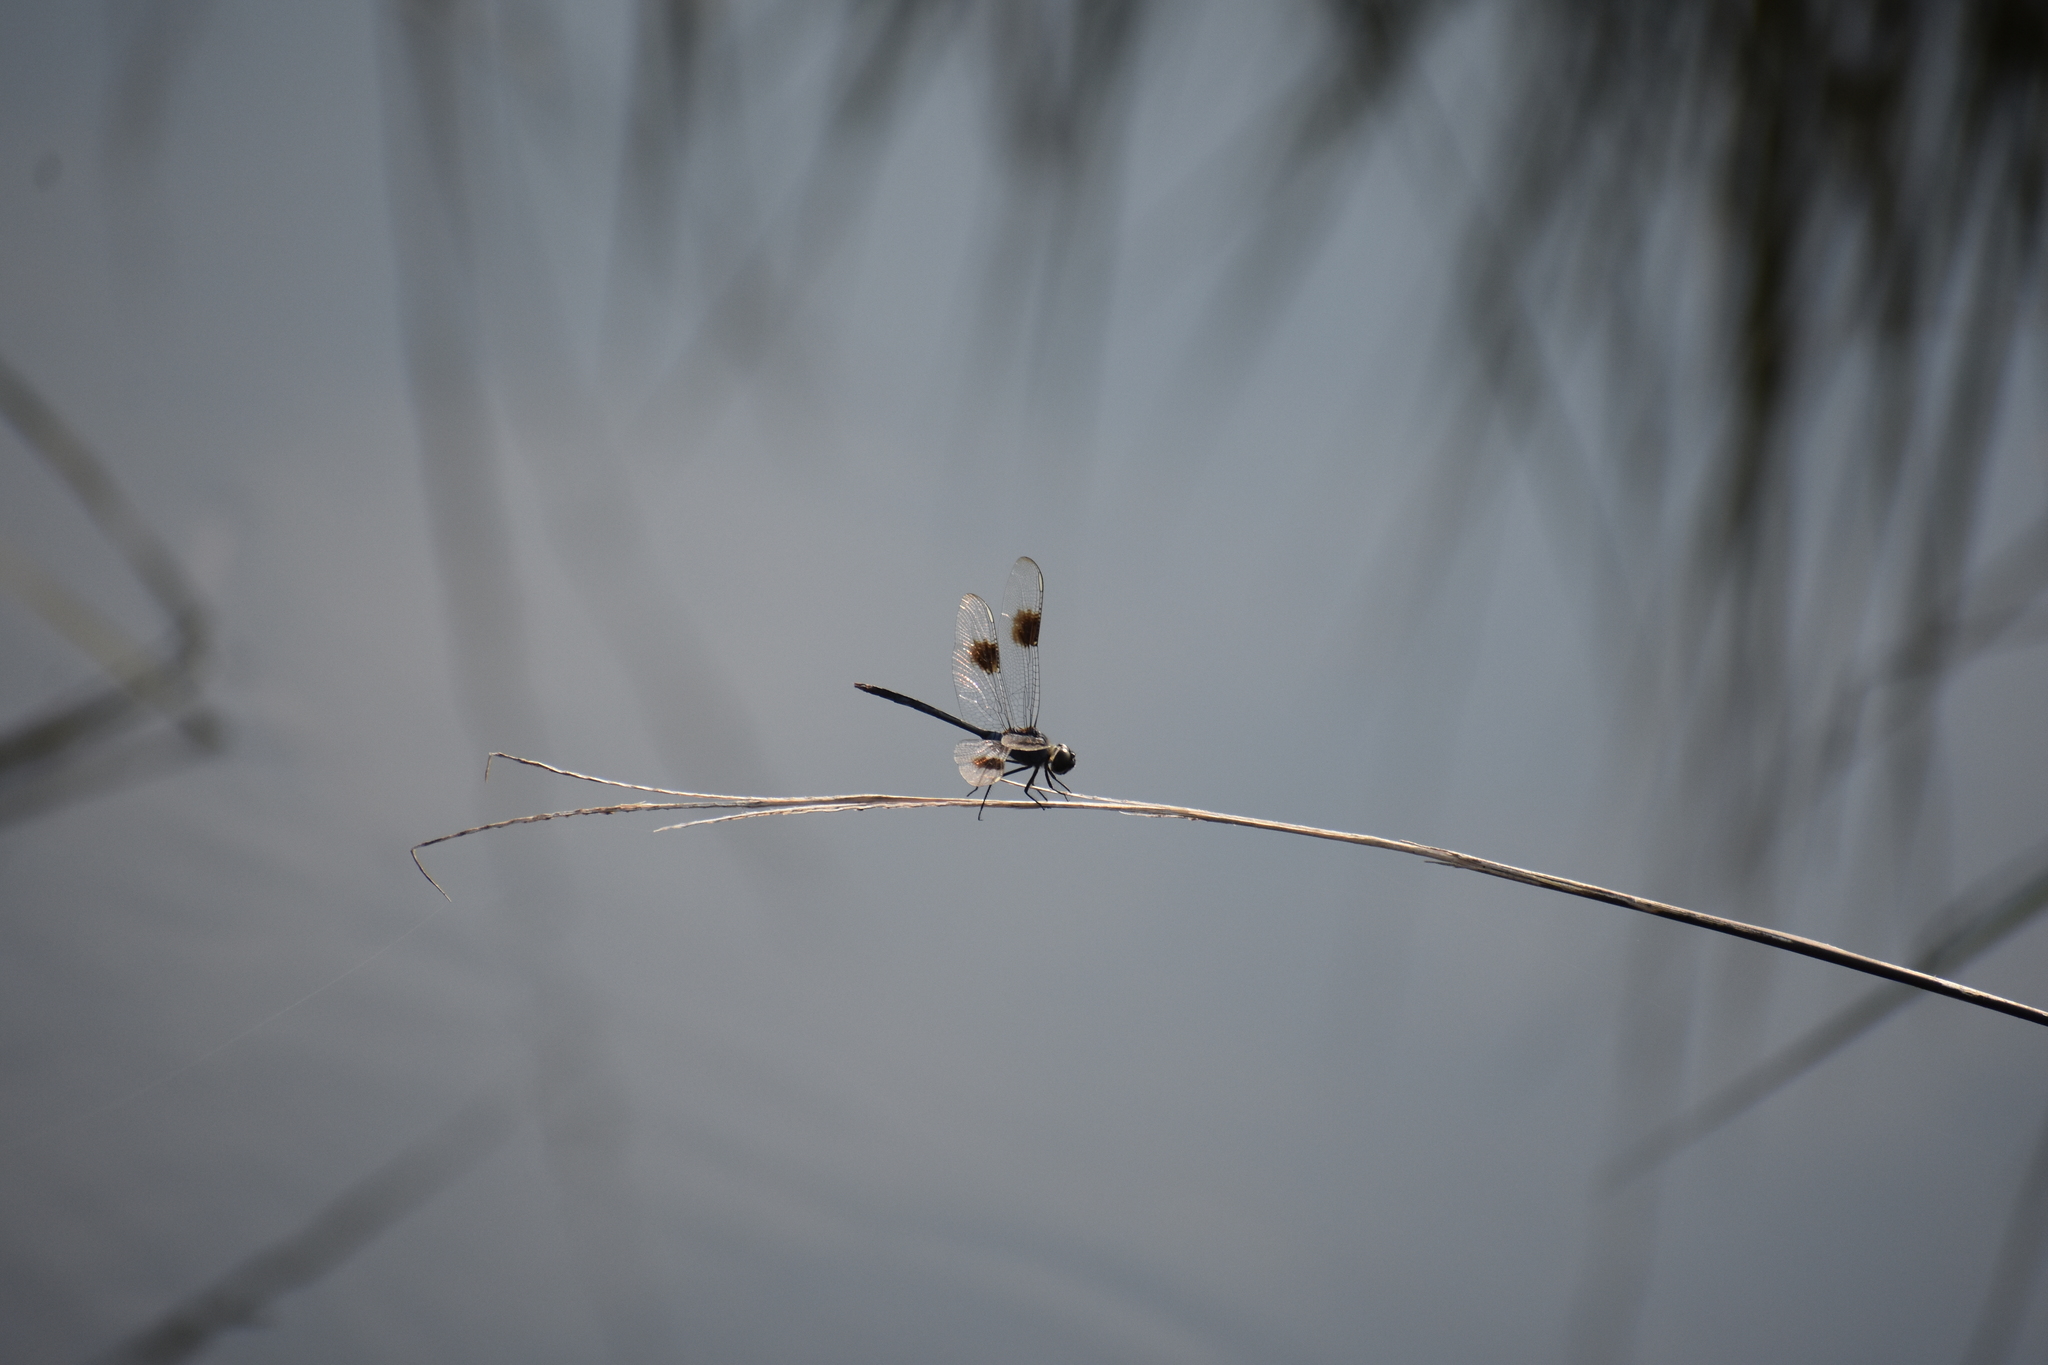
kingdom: Animalia
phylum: Arthropoda
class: Insecta
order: Odonata
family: Libellulidae
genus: Brachymesia
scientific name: Brachymesia gravida
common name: Four-spotted pennant
